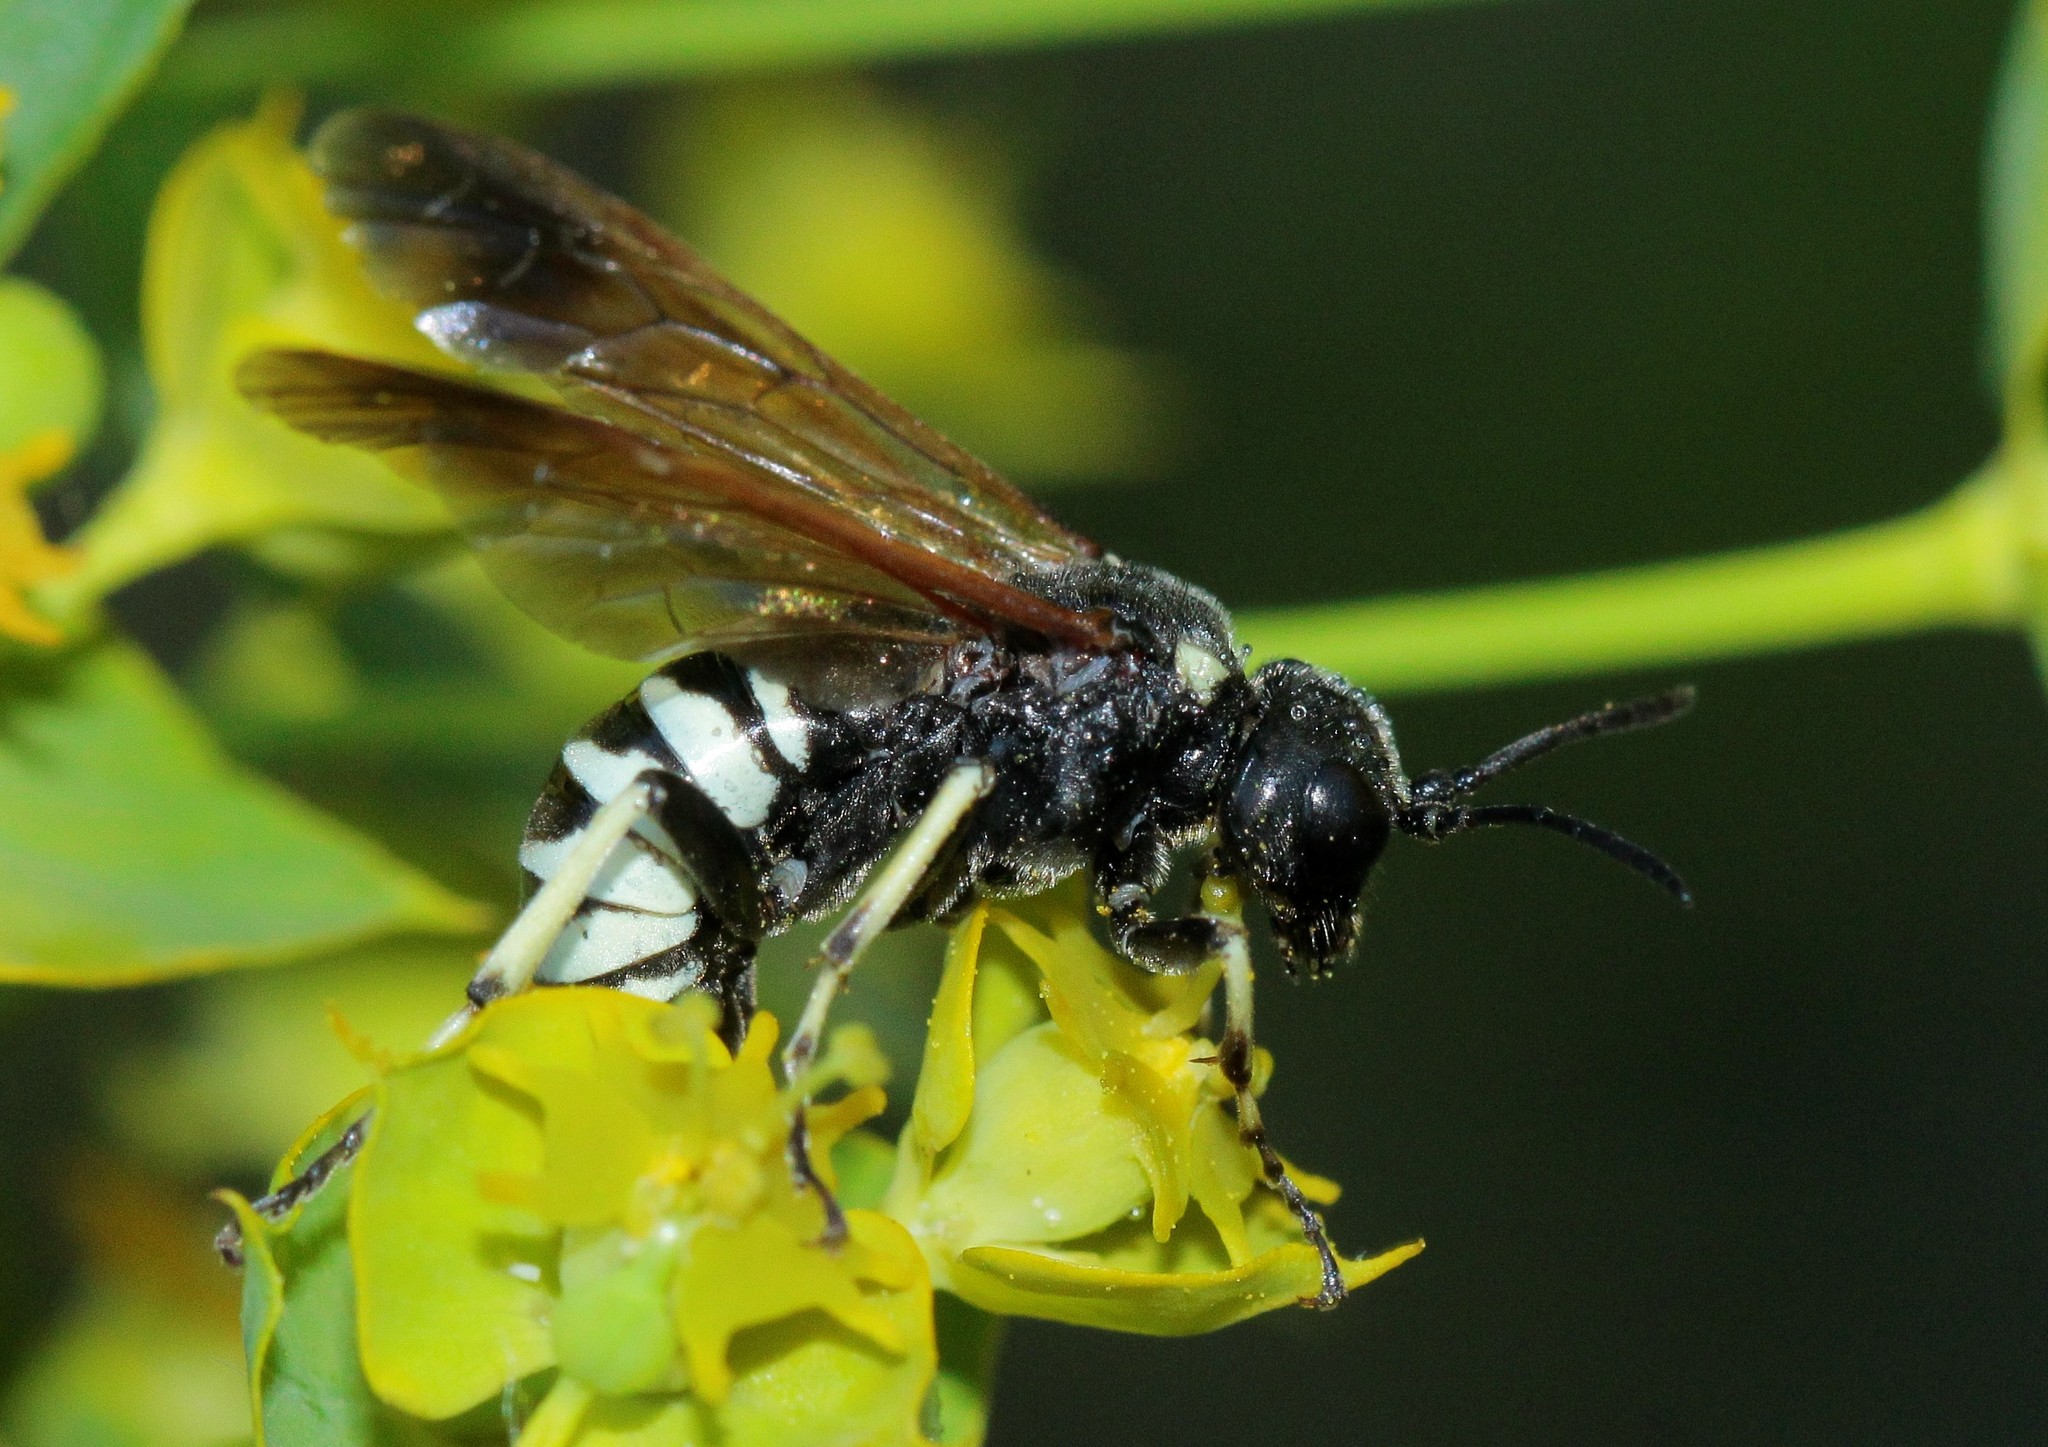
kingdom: Animalia
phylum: Arthropoda
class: Insecta
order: Hymenoptera
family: Tenthredinidae
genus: Tenthredo
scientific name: Tenthredo bifasciata
